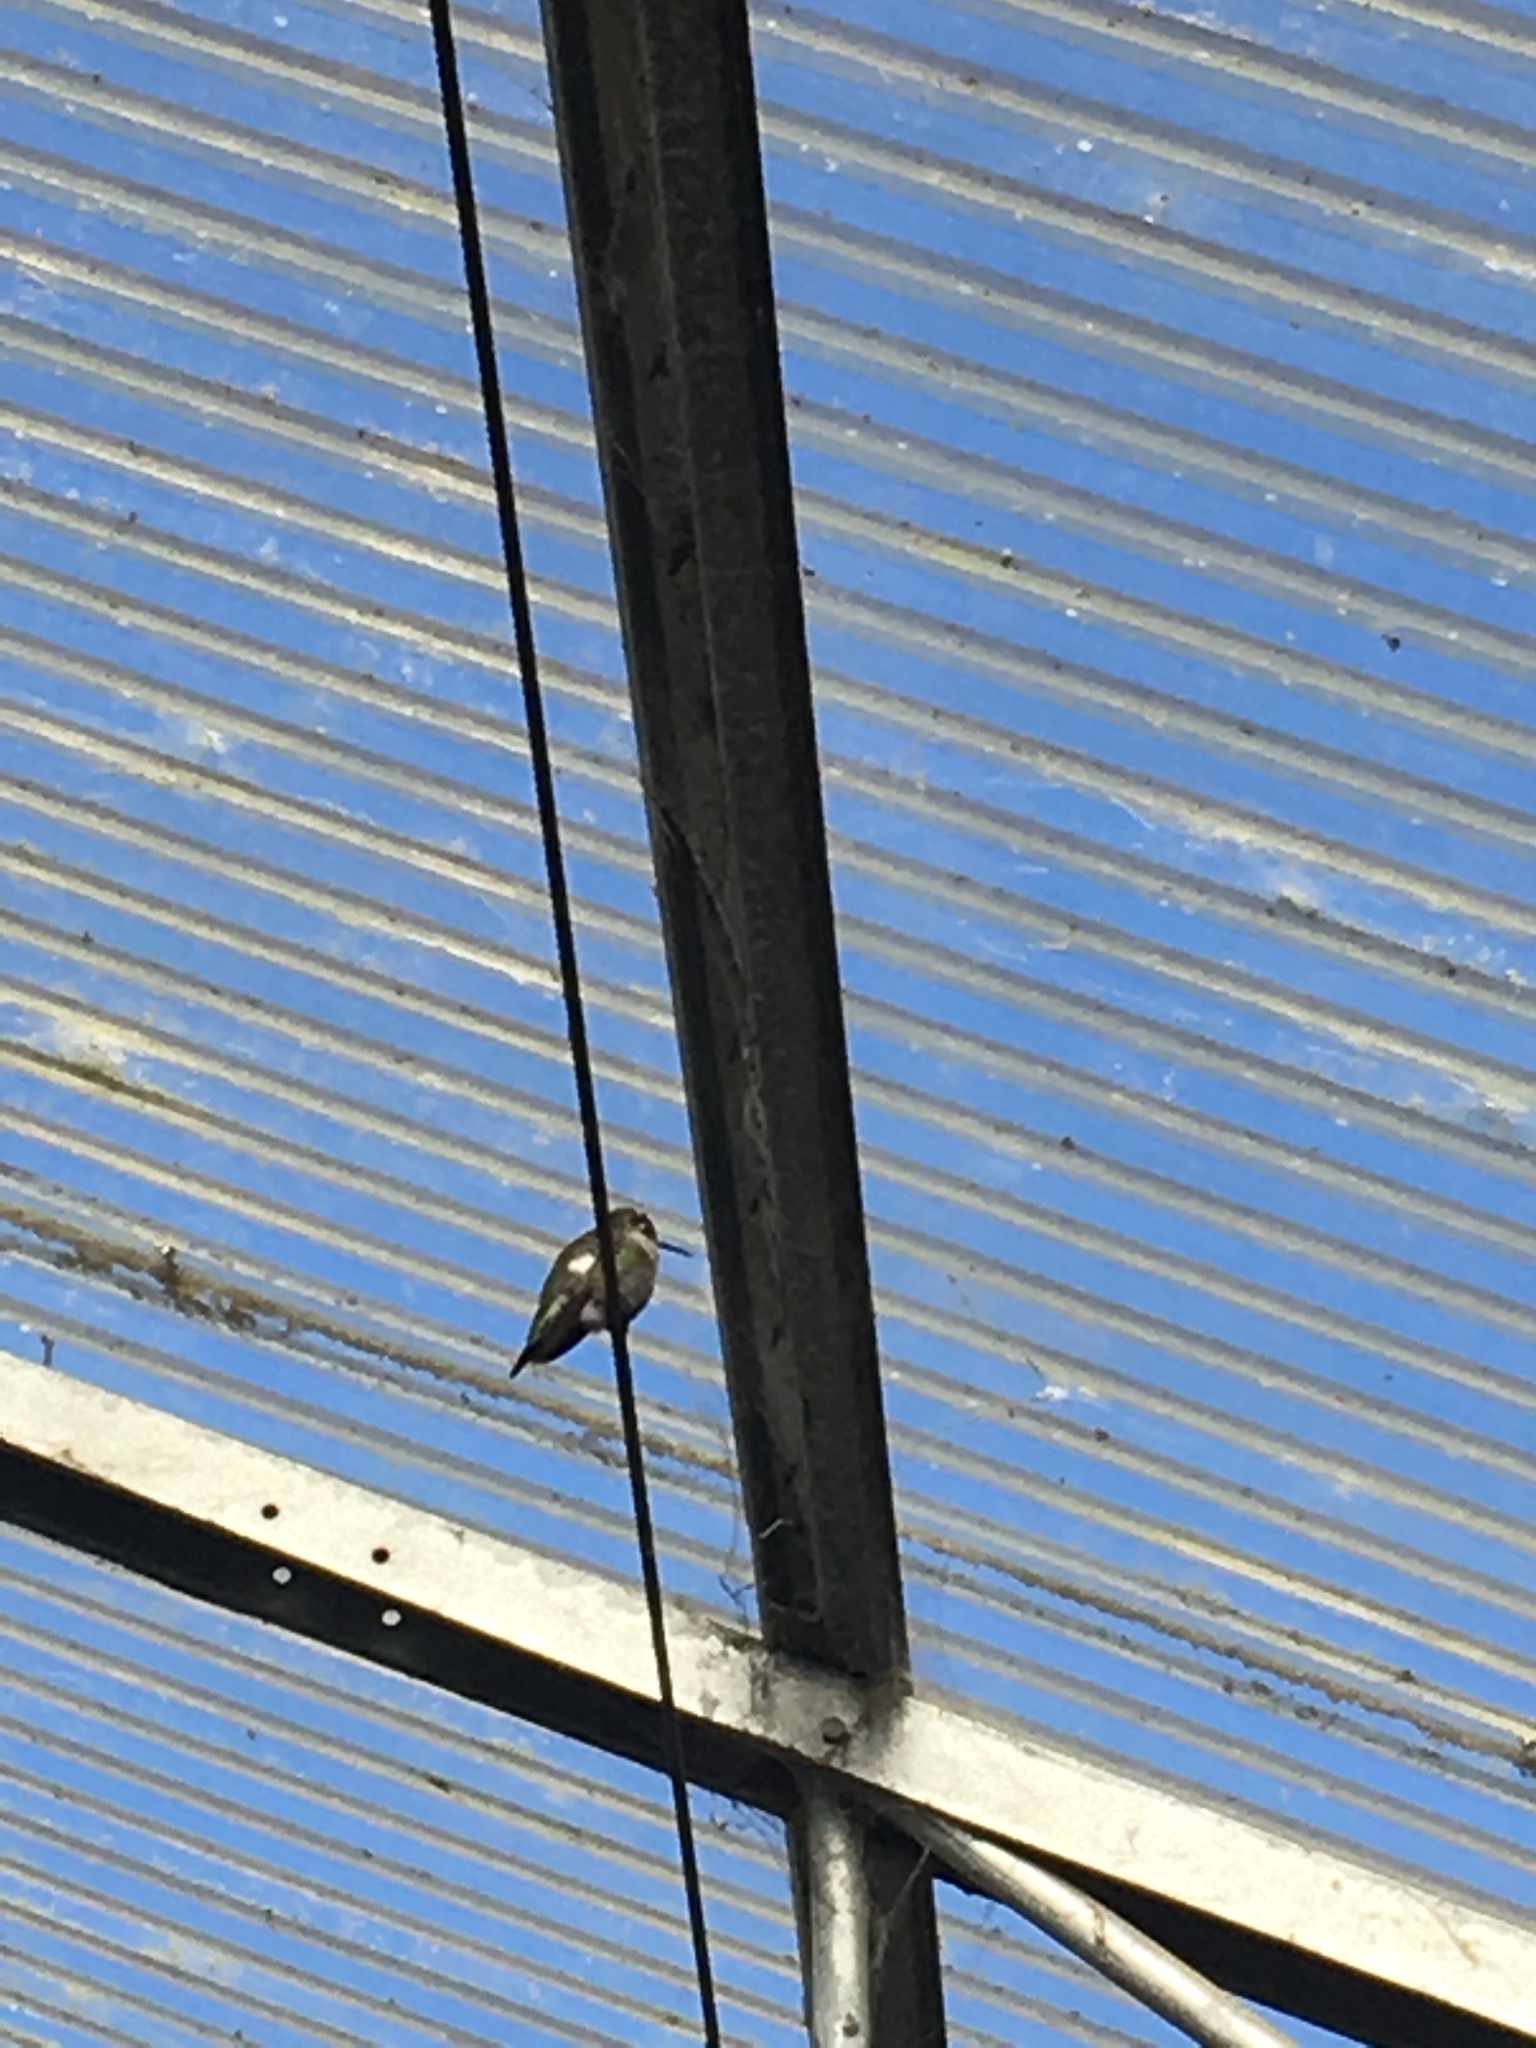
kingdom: Animalia
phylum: Chordata
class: Aves
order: Apodiformes
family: Trochilidae
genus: Calypte
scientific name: Calypte anna
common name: Anna's hummingbird
